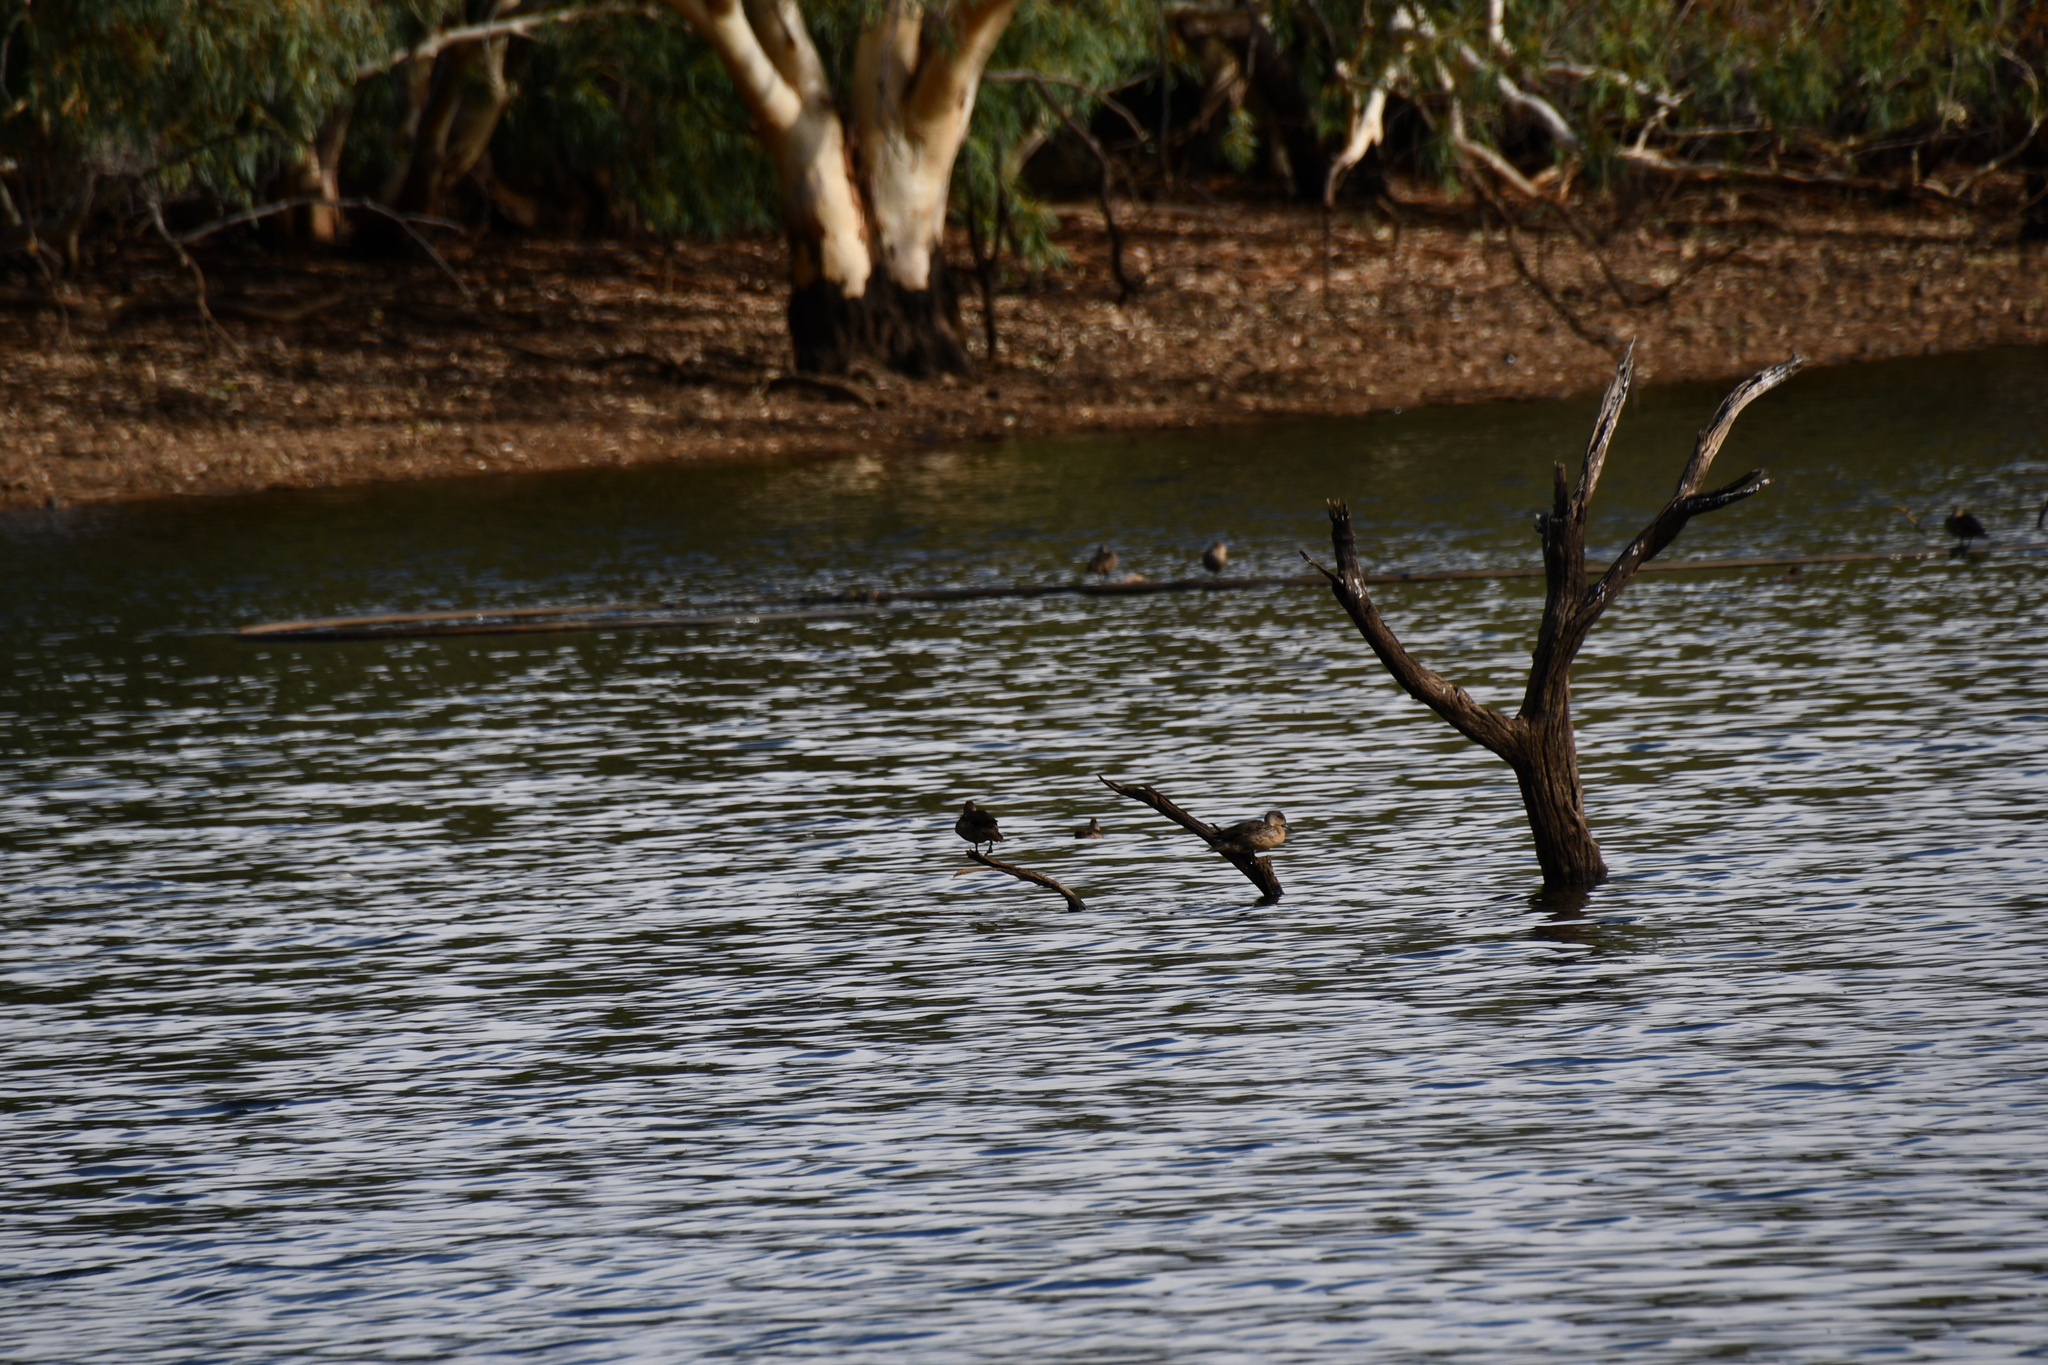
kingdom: Animalia
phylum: Chordata
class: Aves
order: Anseriformes
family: Anatidae
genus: Anas
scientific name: Anas gracilis
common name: Grey teal
